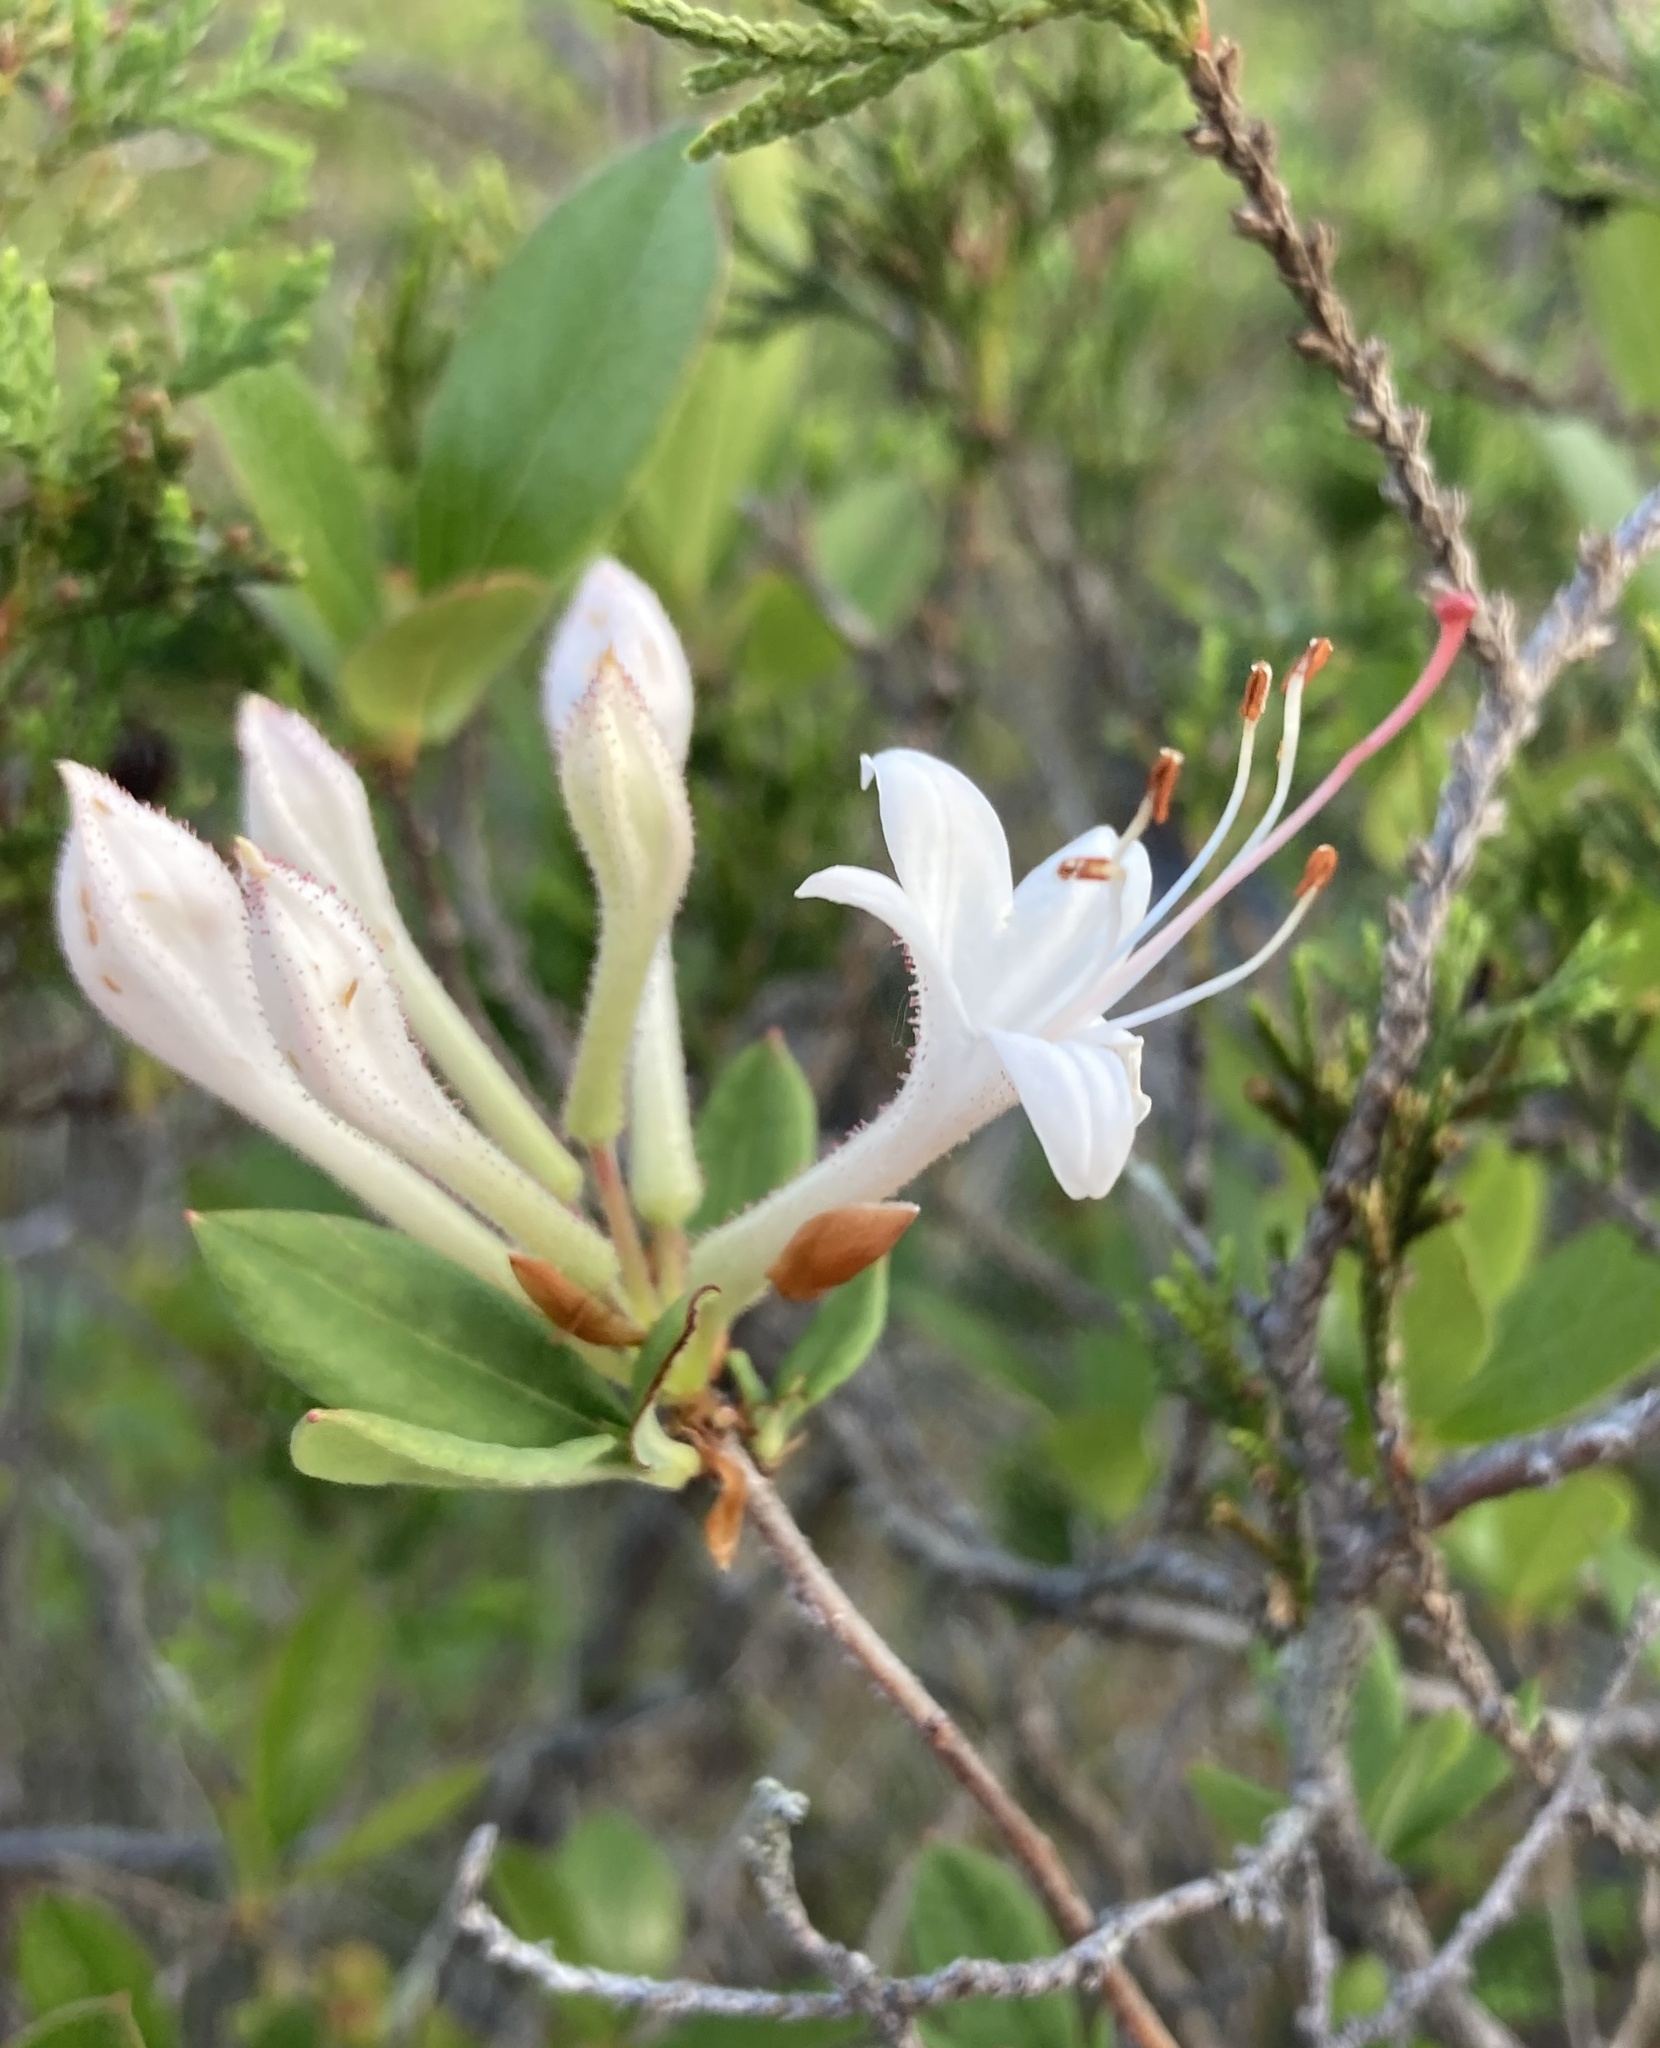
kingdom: Plantae
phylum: Tracheophyta
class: Magnoliopsida
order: Ericales
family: Ericaceae
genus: Rhododendron
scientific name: Rhododendron viscosum
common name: Clammy azalea
